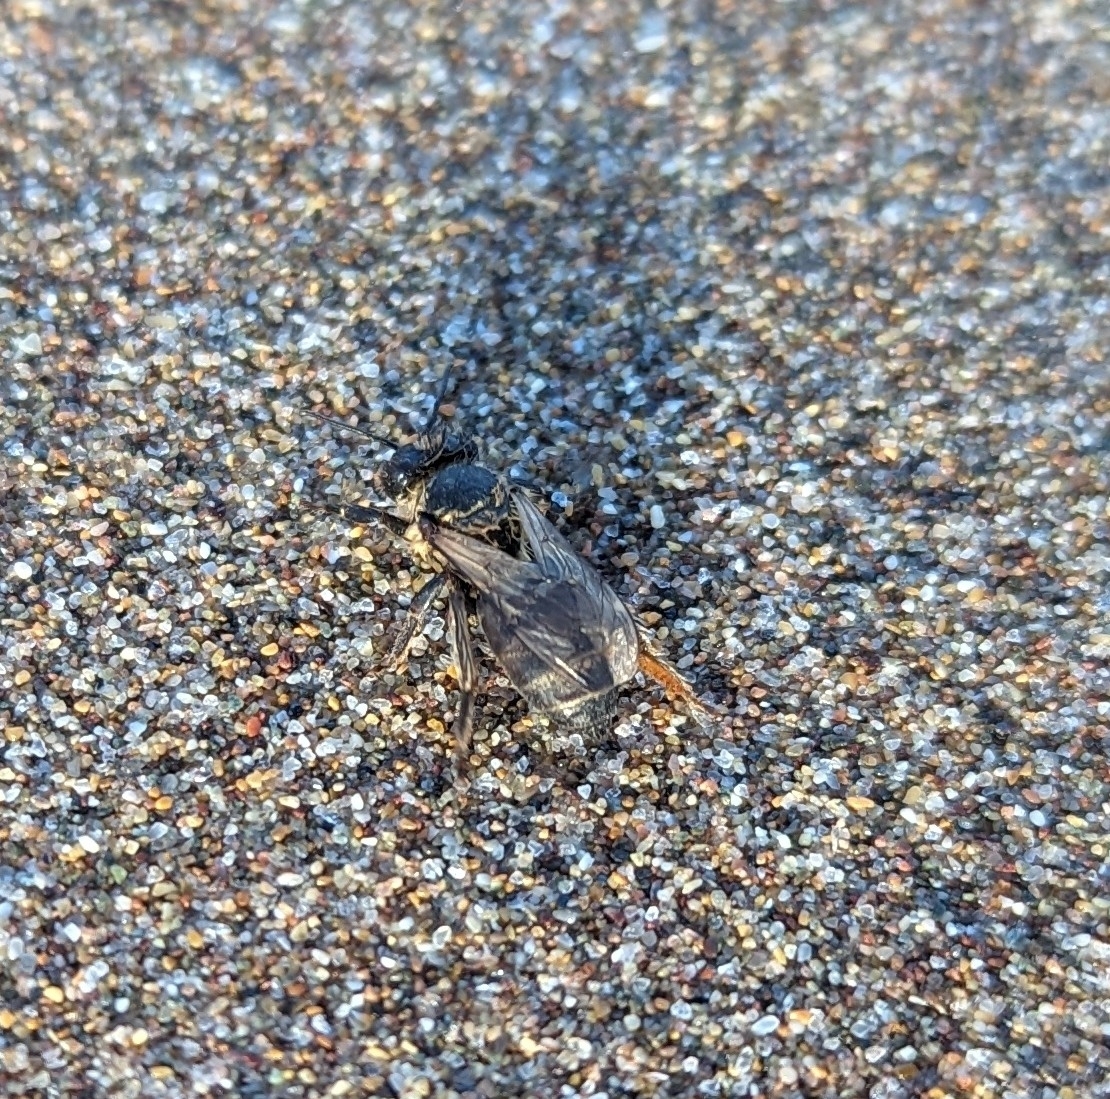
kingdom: Animalia
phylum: Arthropoda
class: Insecta
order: Hymenoptera
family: Apidae
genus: Apis
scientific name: Apis mellifera
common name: Honey bee
